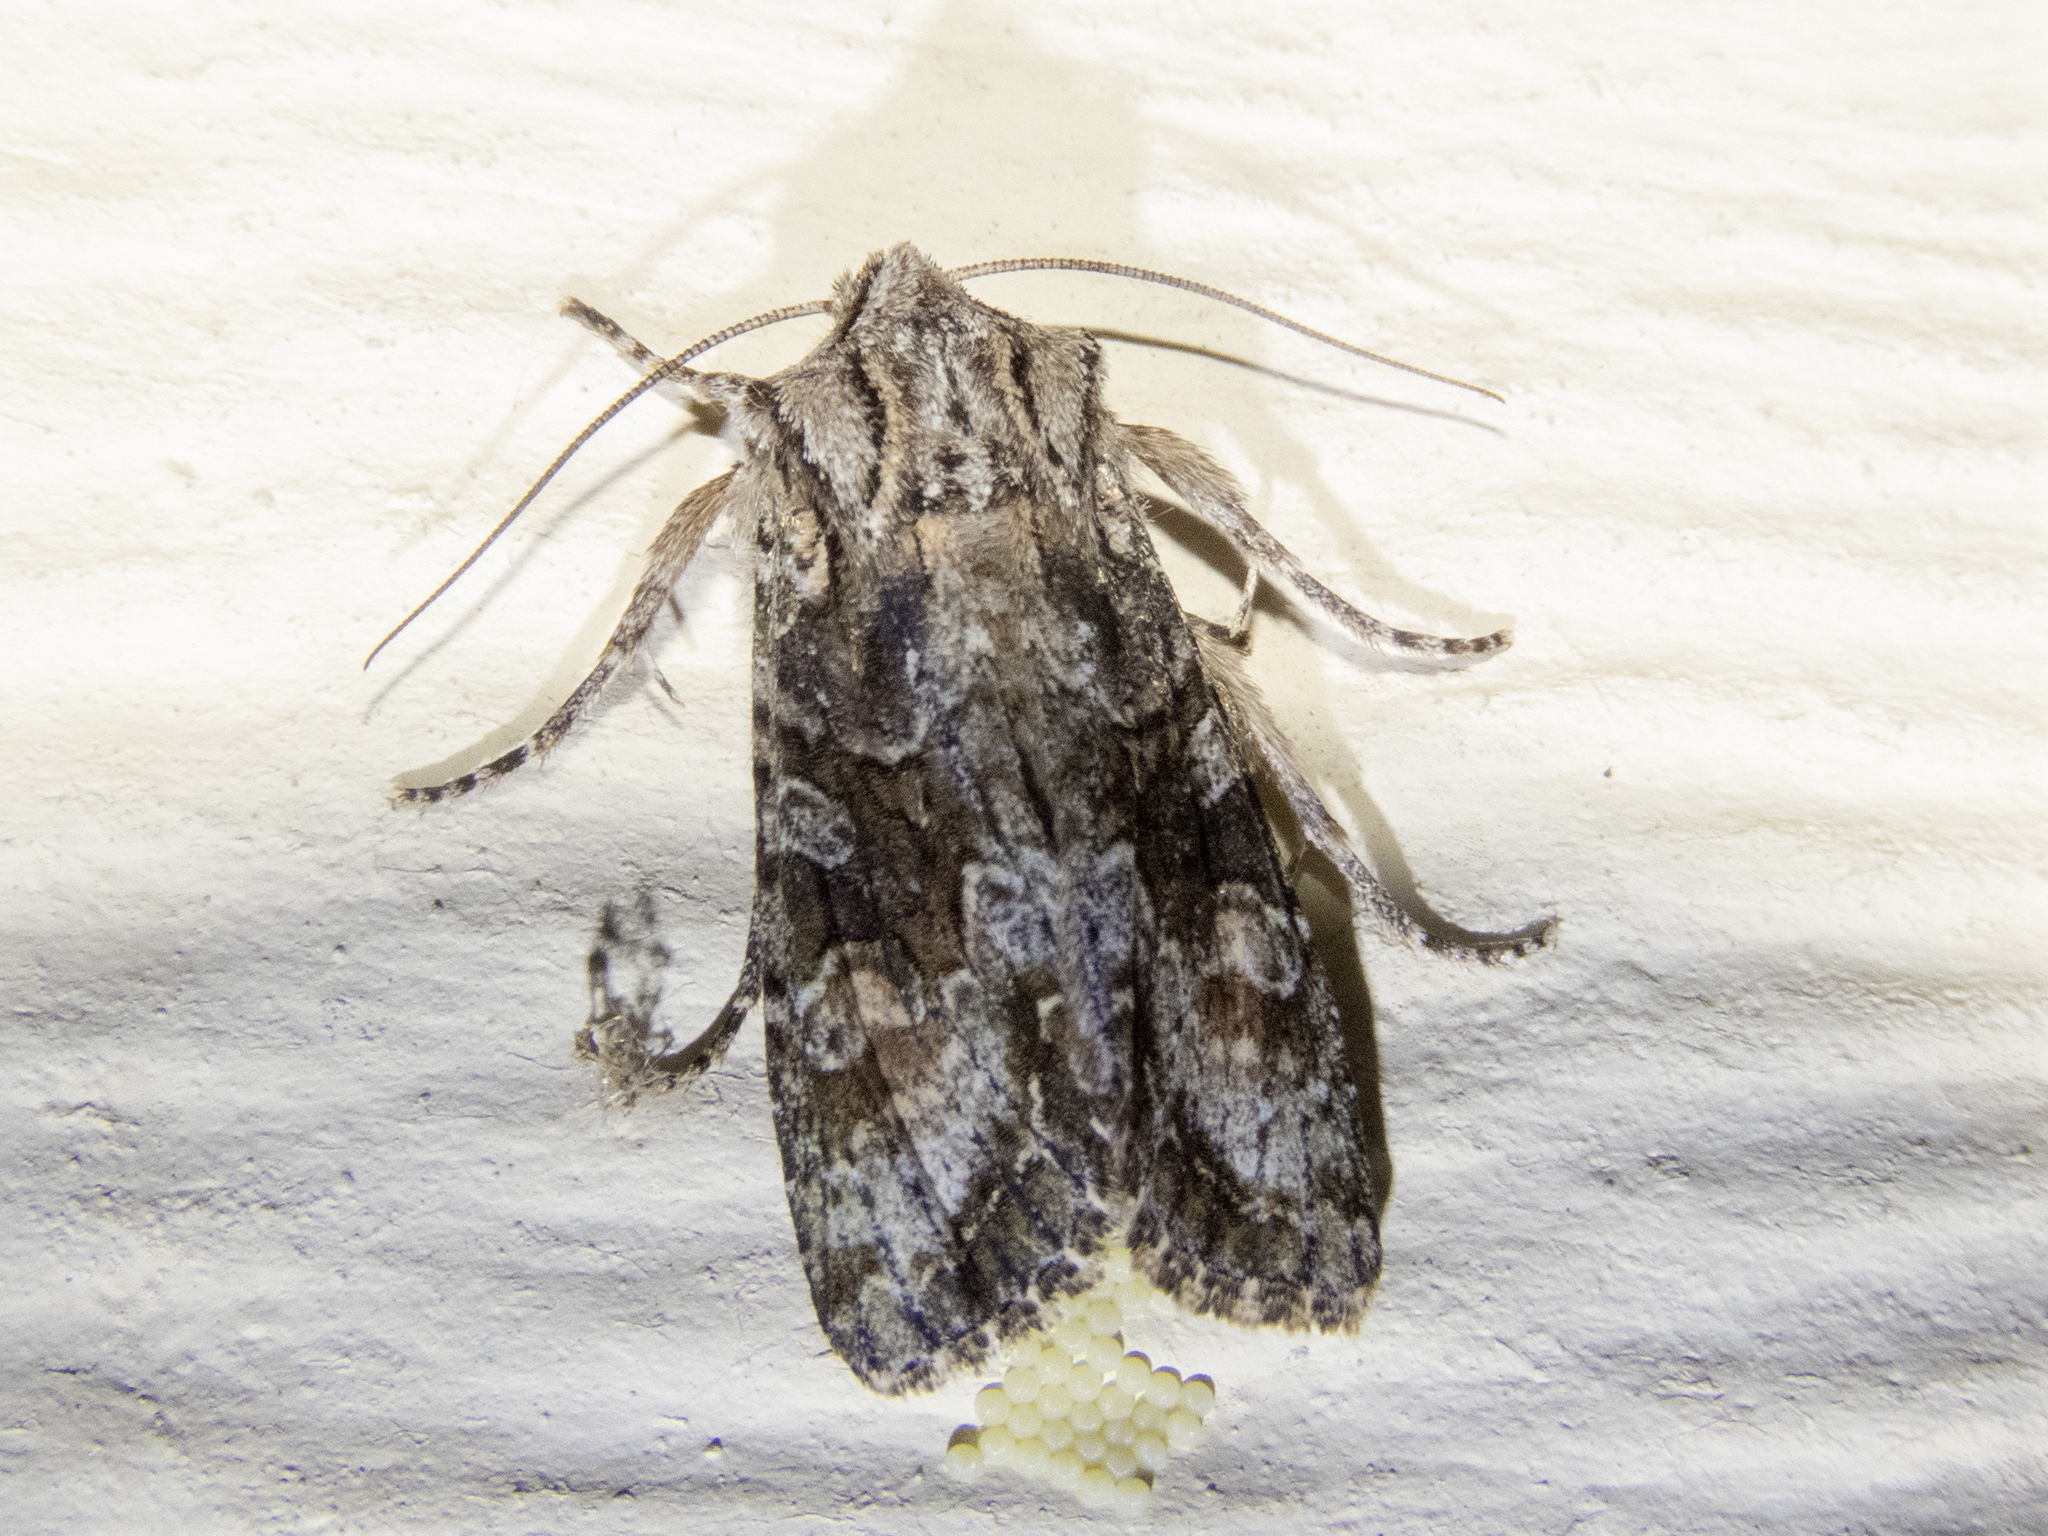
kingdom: Animalia
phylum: Arthropoda
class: Insecta
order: Lepidoptera
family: Noctuidae
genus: Ichneutica
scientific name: Ichneutica mutans
